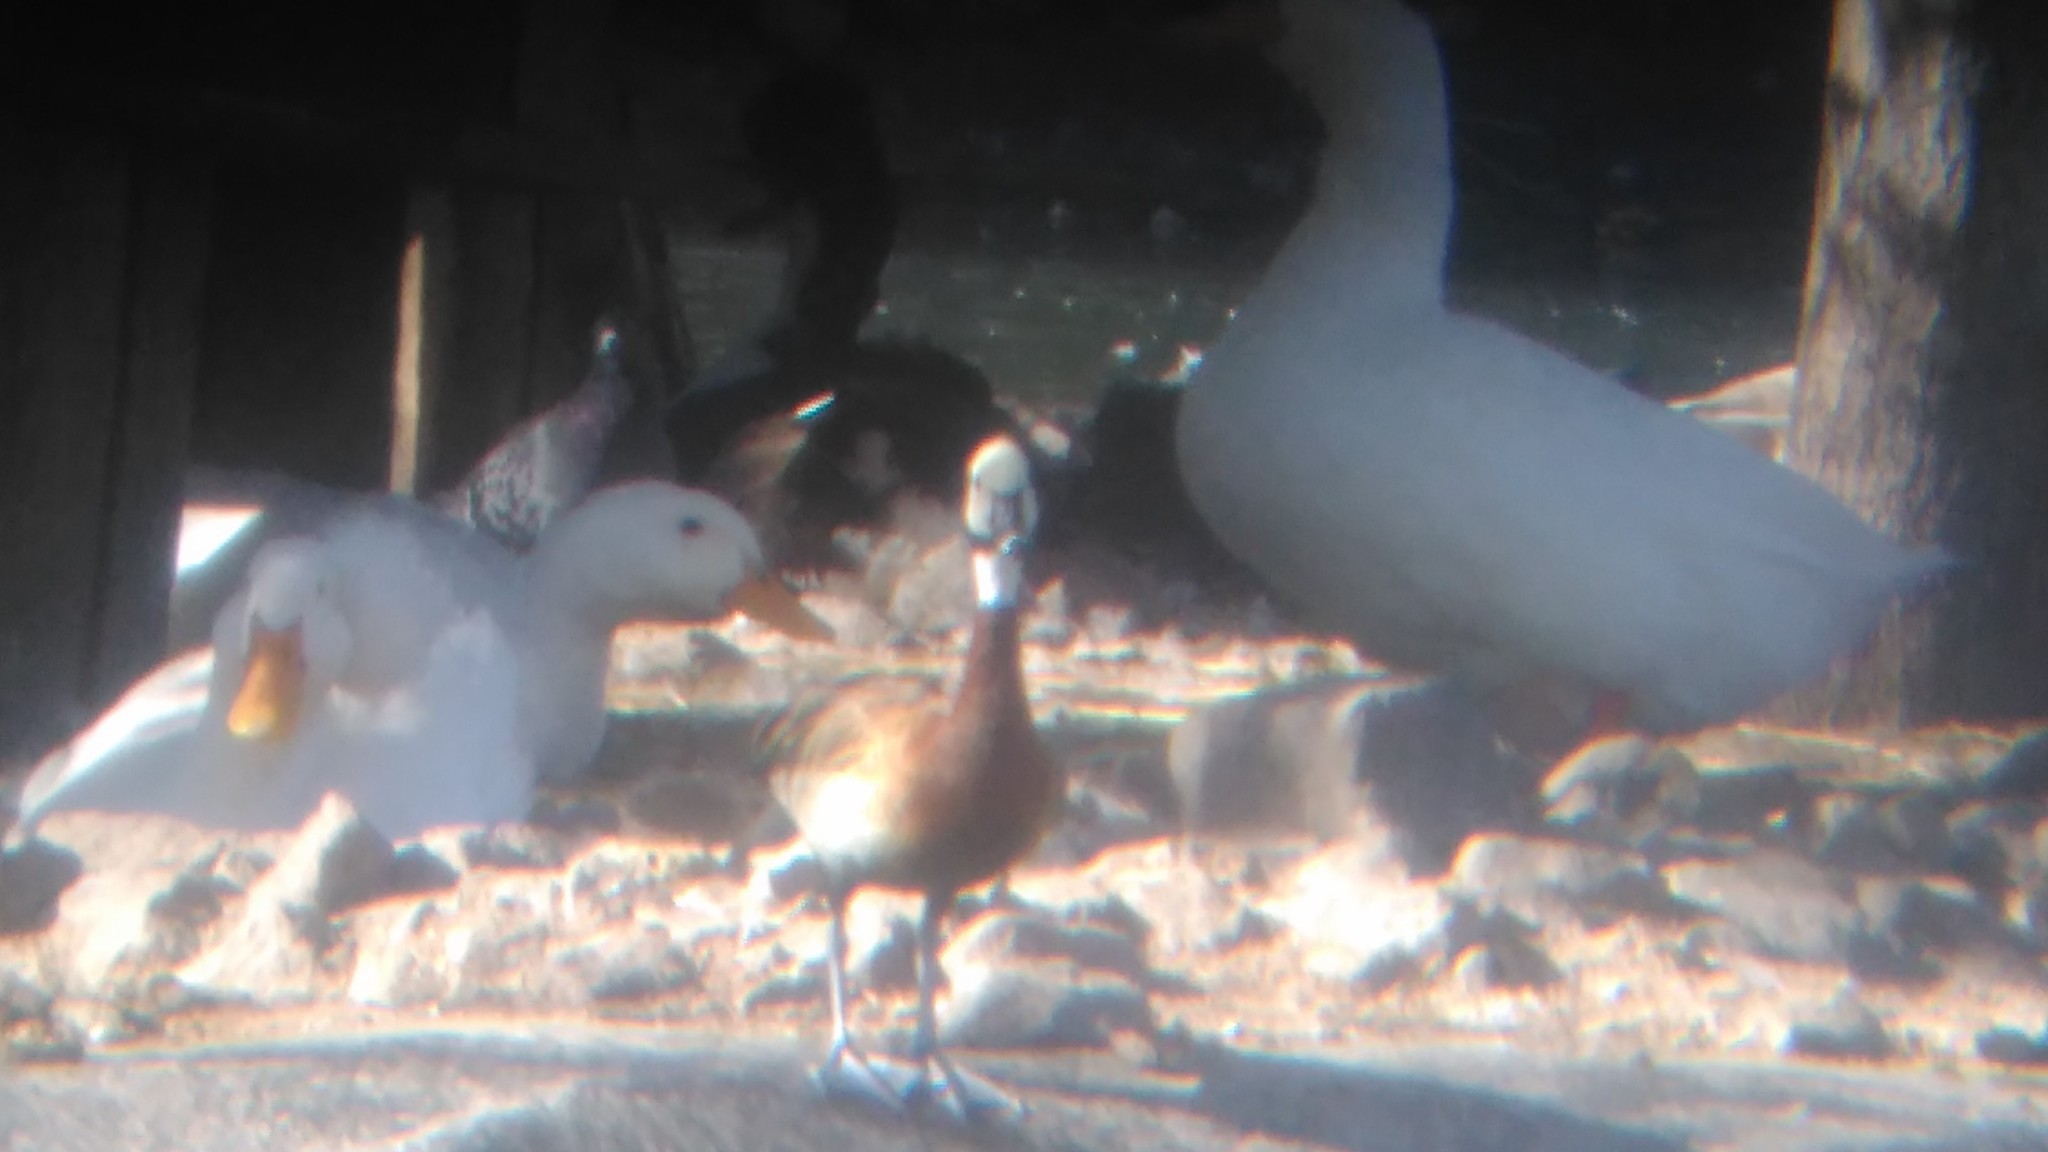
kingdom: Animalia
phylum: Chordata
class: Aves
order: Anseriformes
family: Anatidae
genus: Dendrocygna
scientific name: Dendrocygna viduata
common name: White-faced whistling duck
